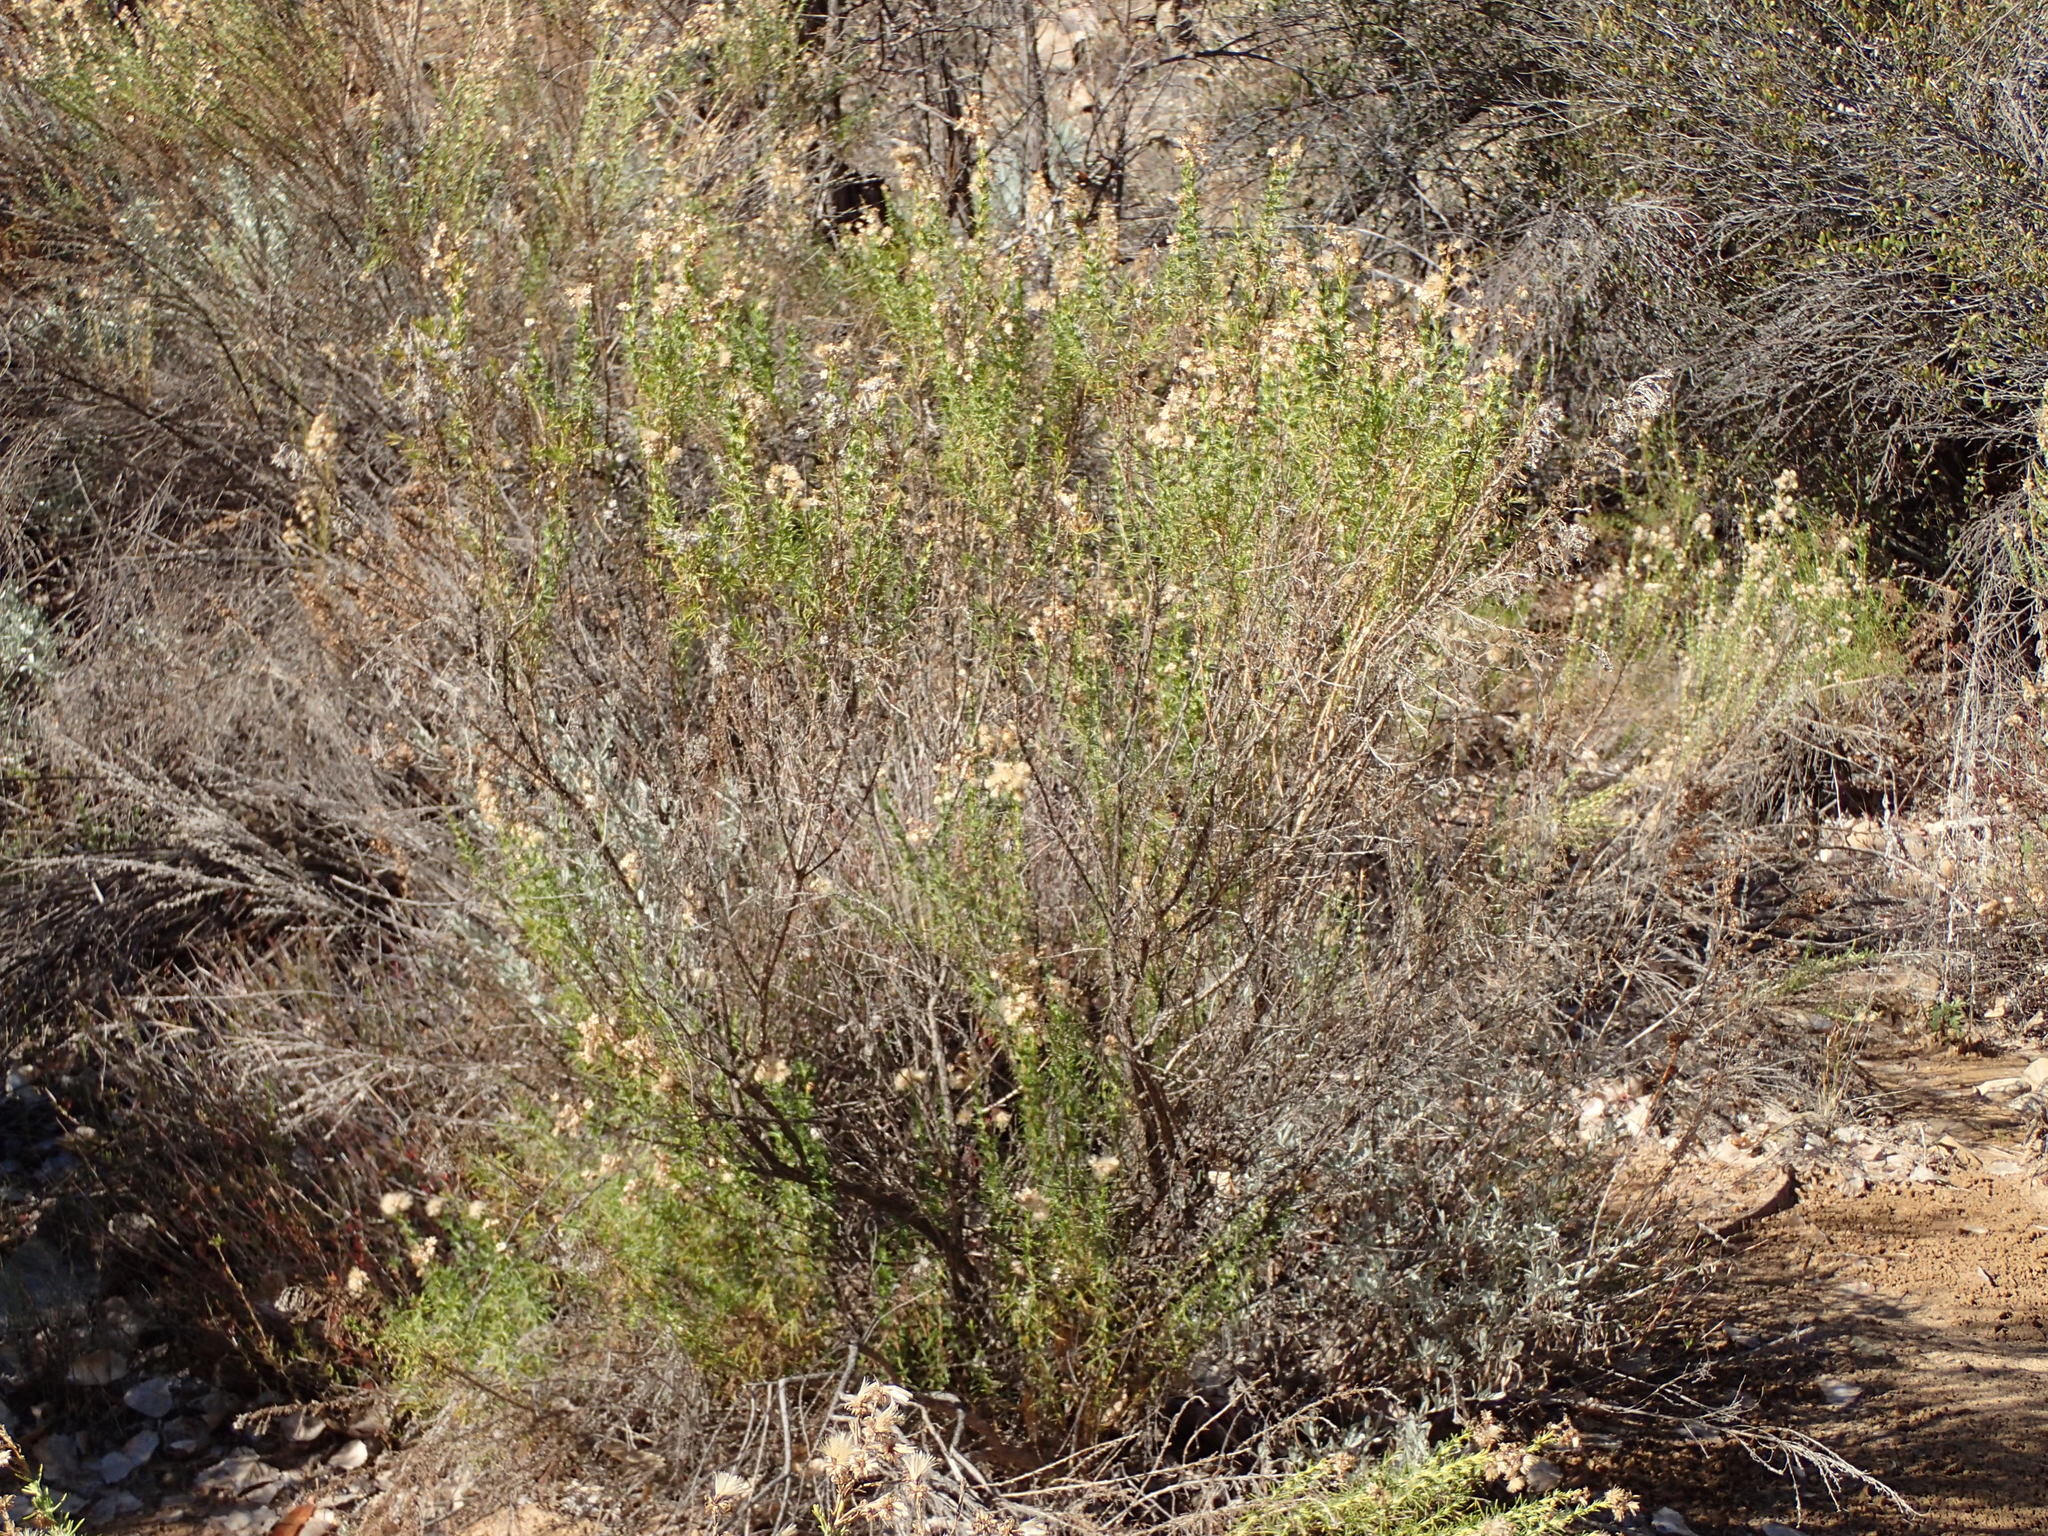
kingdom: Plantae
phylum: Tracheophyta
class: Magnoliopsida
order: Asterales
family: Asteraceae
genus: Ericameria
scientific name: Ericameria ericoides
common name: California goldenbush
